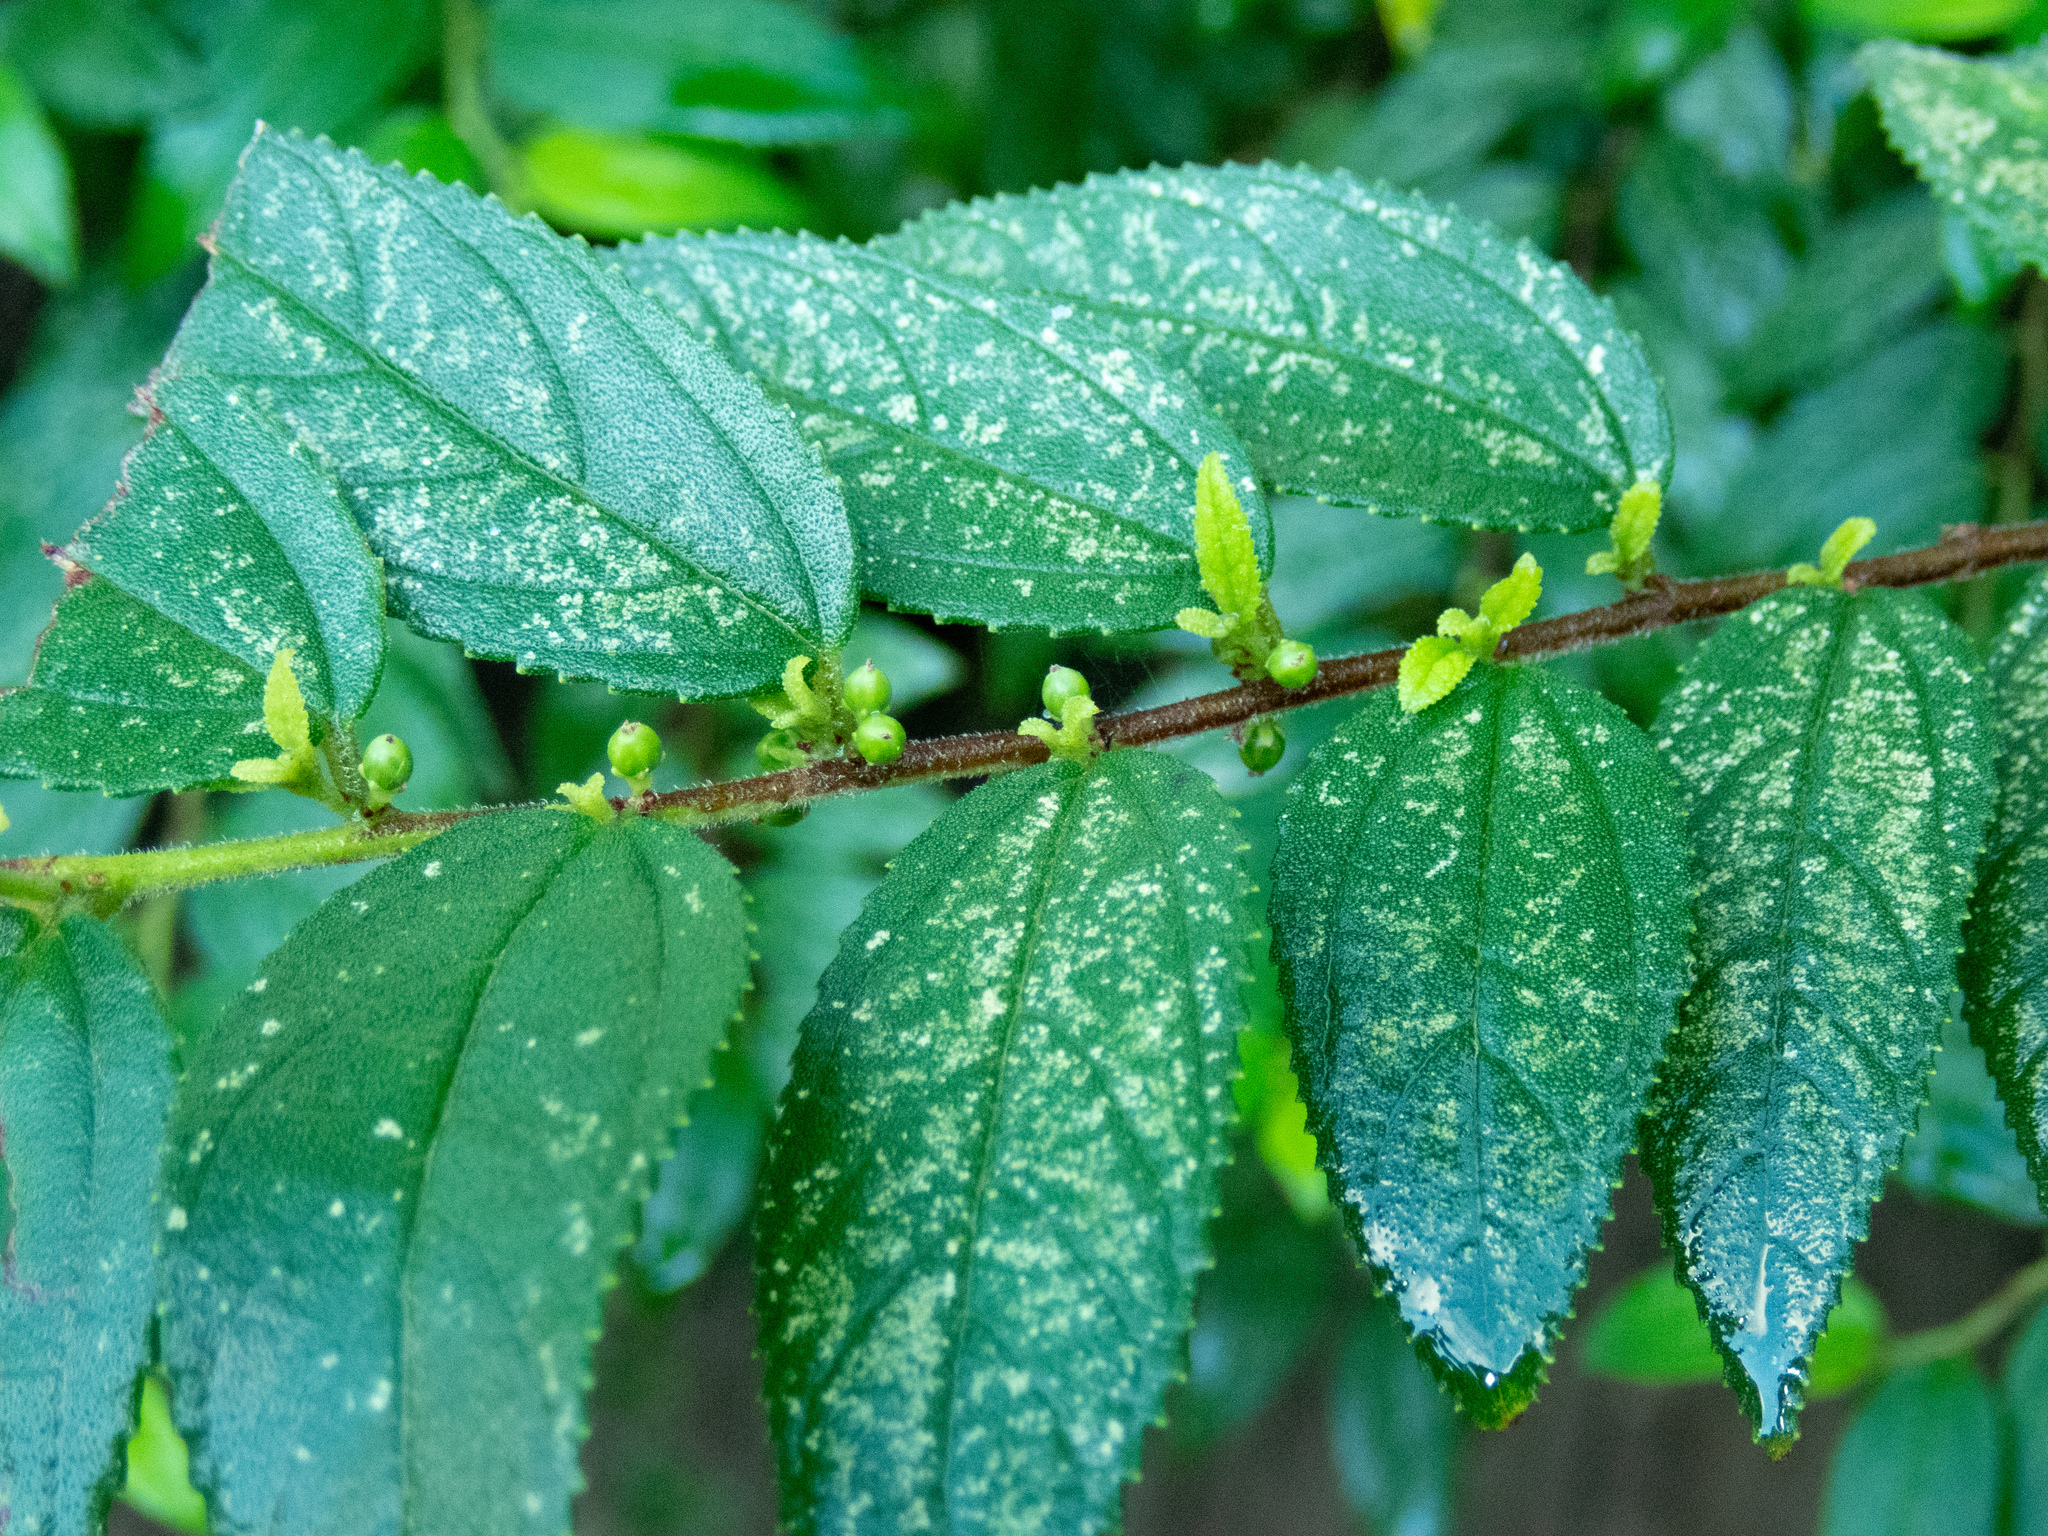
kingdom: Plantae
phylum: Tracheophyta
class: Magnoliopsida
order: Rosales
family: Cannabaceae
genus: Trema
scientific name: Trema micranthum
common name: Jamaican nettletree
